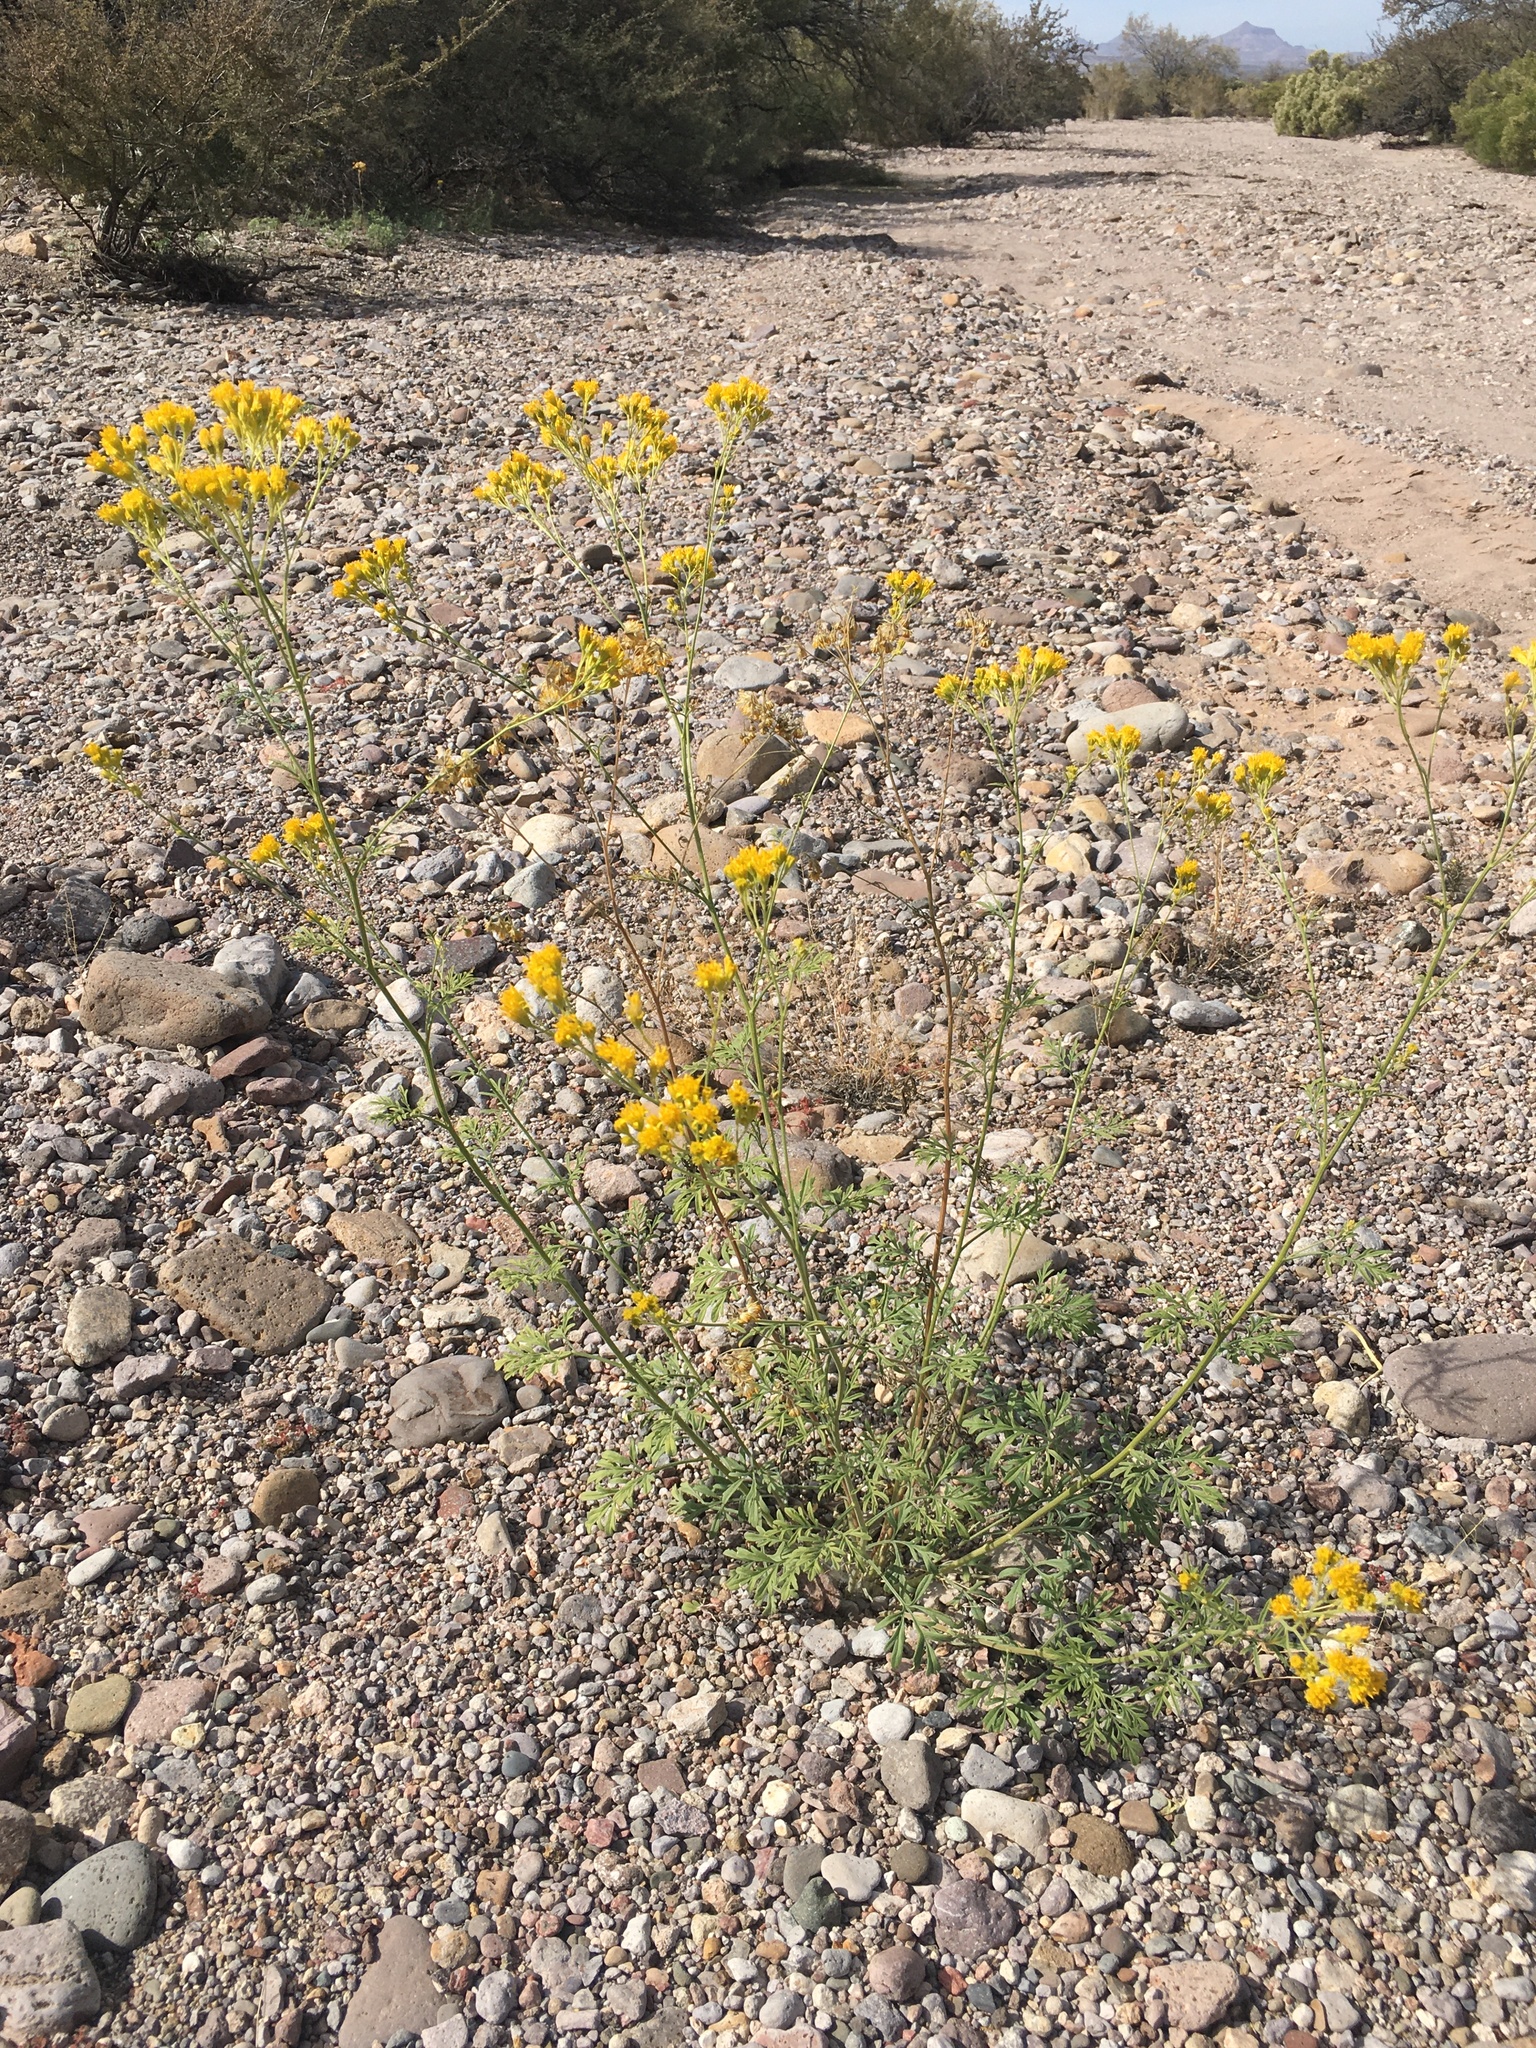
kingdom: Plantae
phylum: Tracheophyta
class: Magnoliopsida
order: Asterales
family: Asteraceae
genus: Hymenothrix
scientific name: Hymenothrix wislizeni
